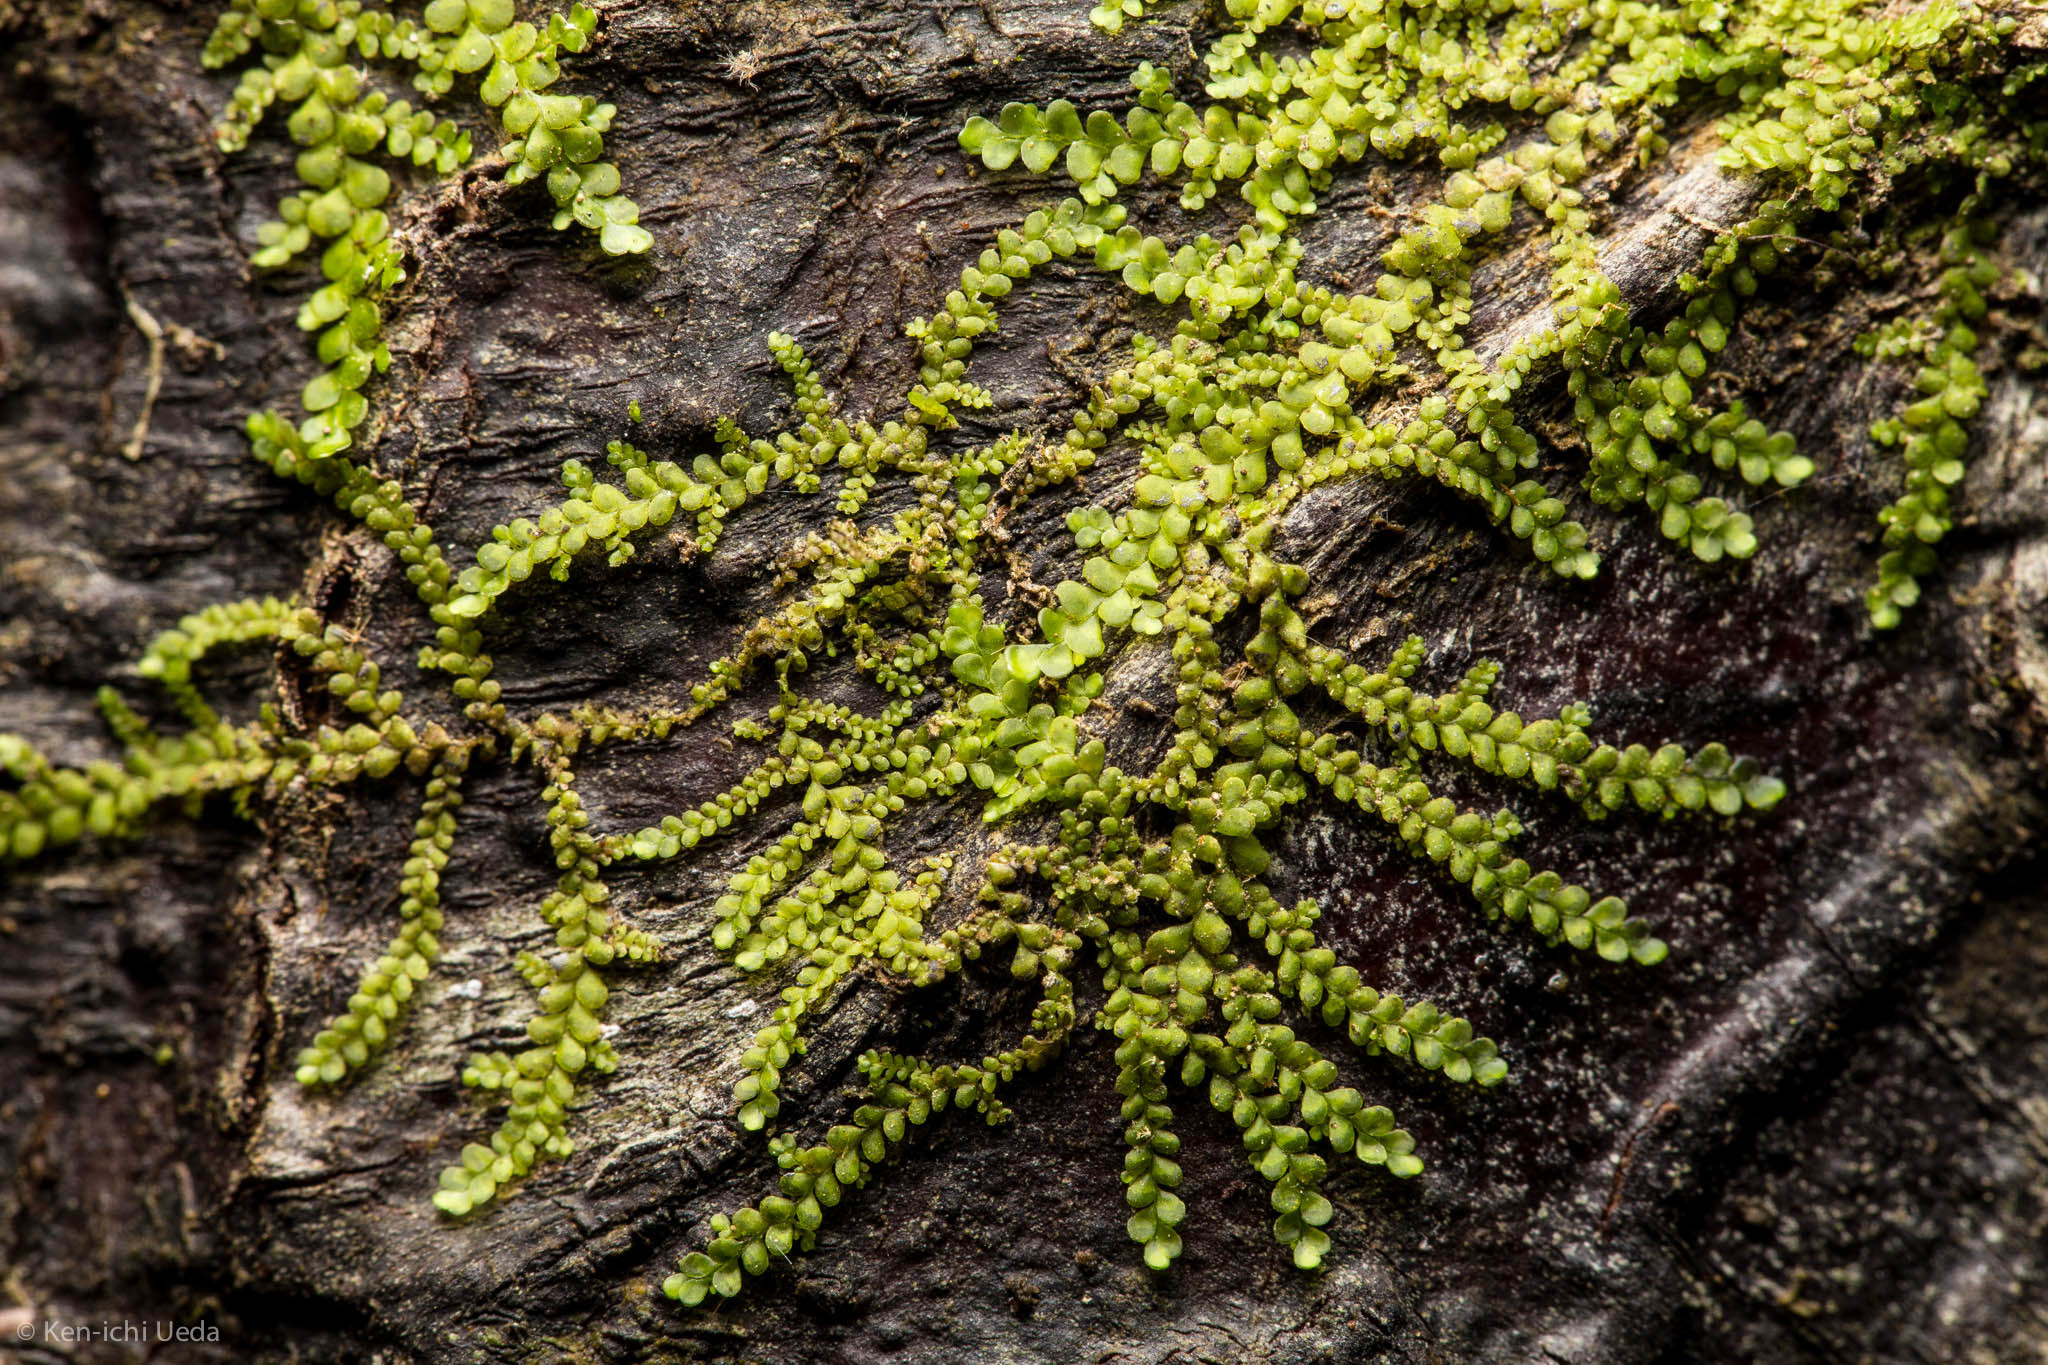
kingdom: Plantae
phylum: Marchantiophyta
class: Jungermanniopsida
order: Porellales
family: Radulaceae
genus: Radula
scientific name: Radula bolanderi
